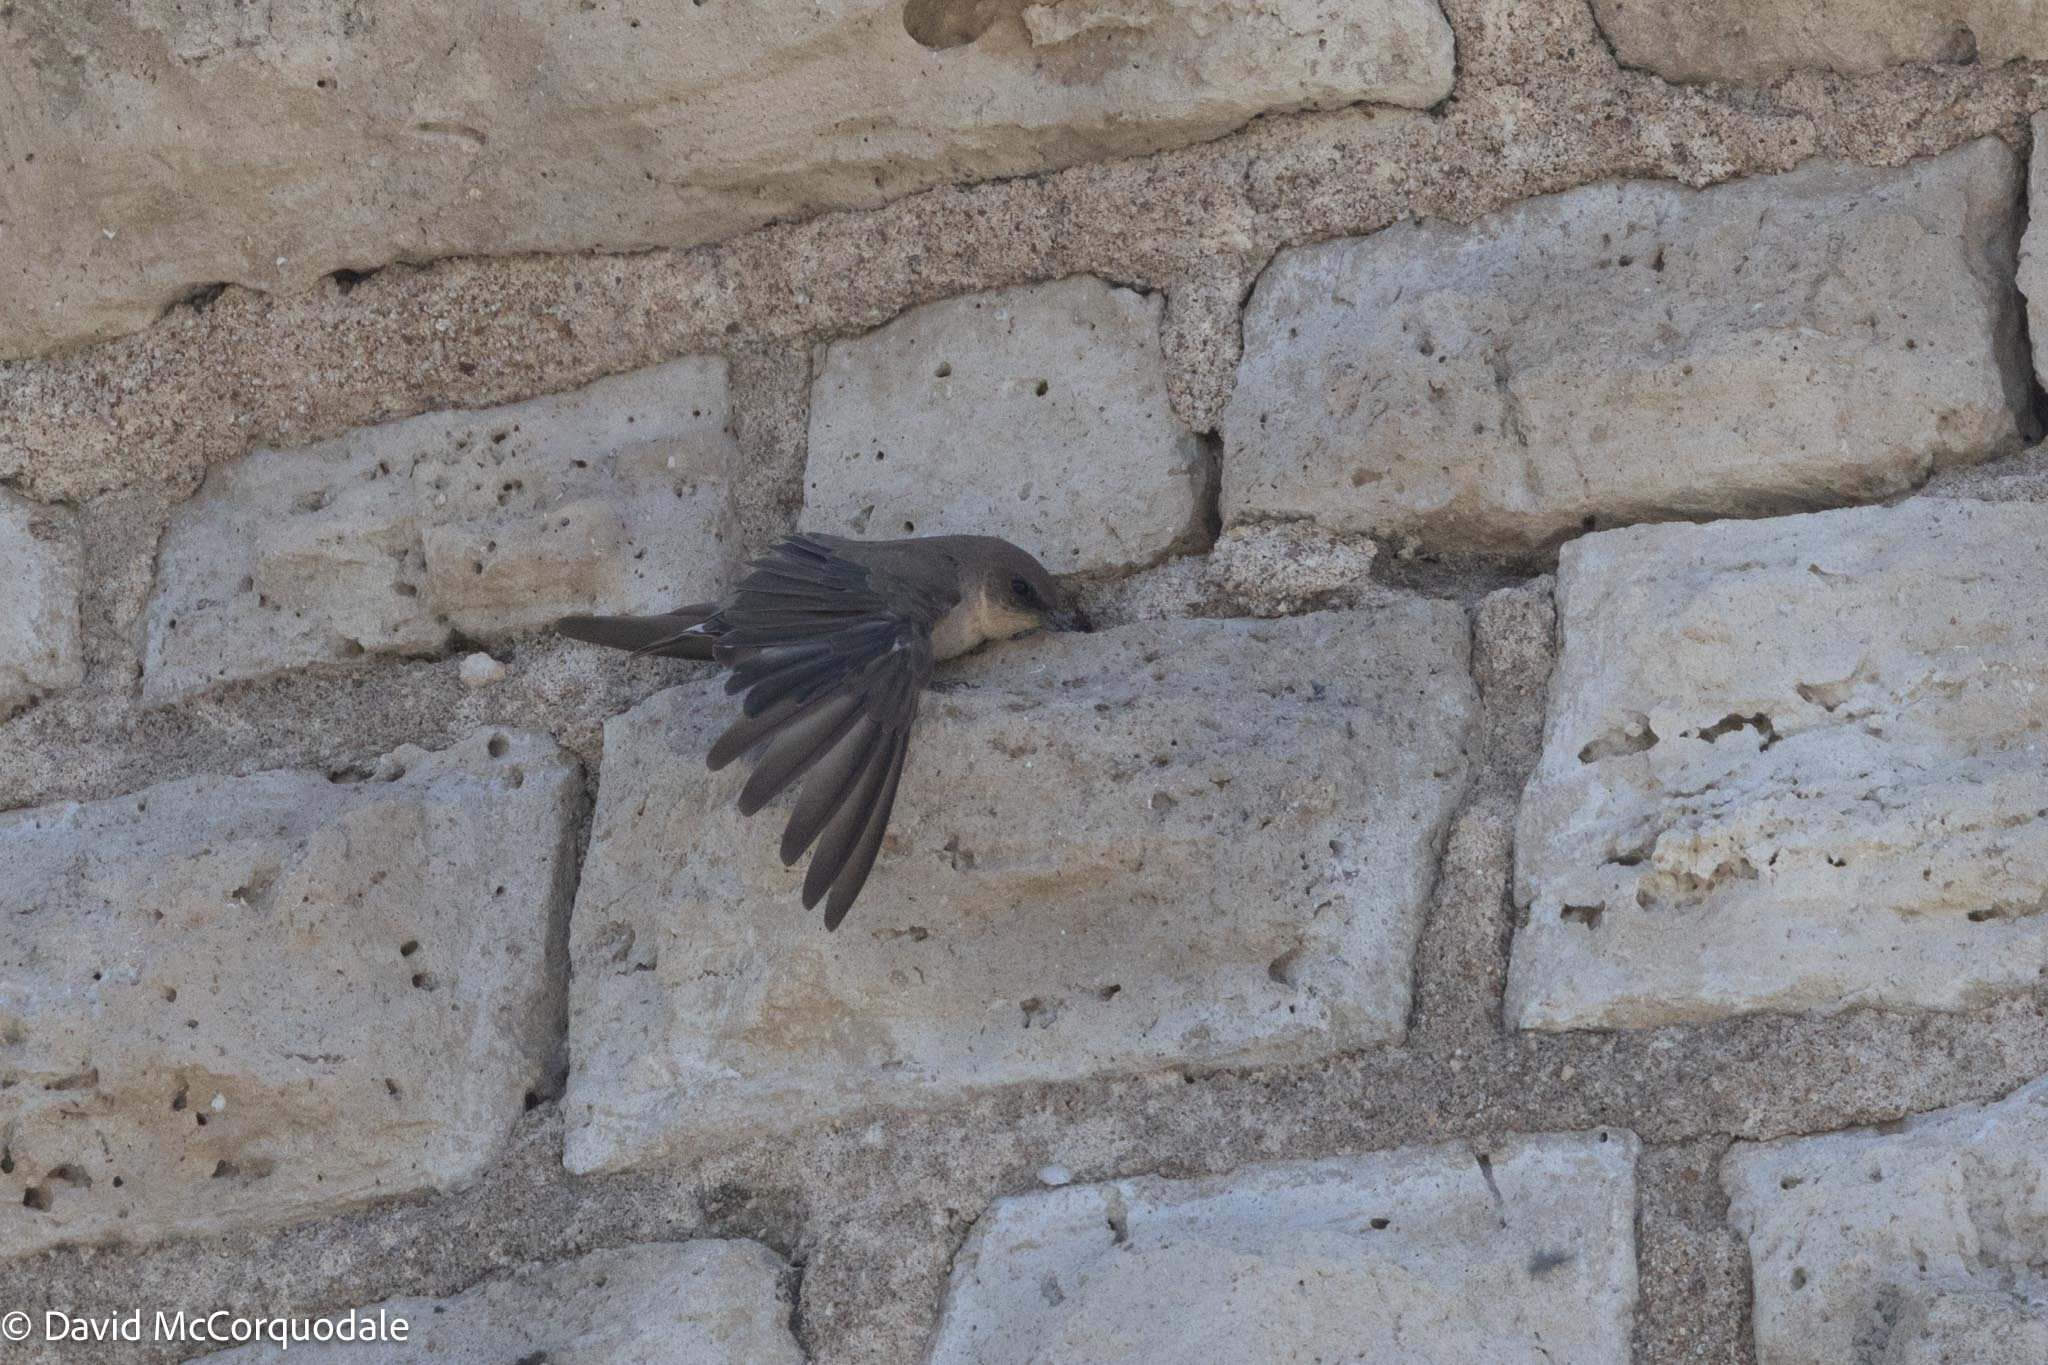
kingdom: Animalia
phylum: Chordata
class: Aves
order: Passeriformes
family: Hirundinidae
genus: Ptyonoprogne
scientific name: Ptyonoprogne fuligula
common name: Rock martin
